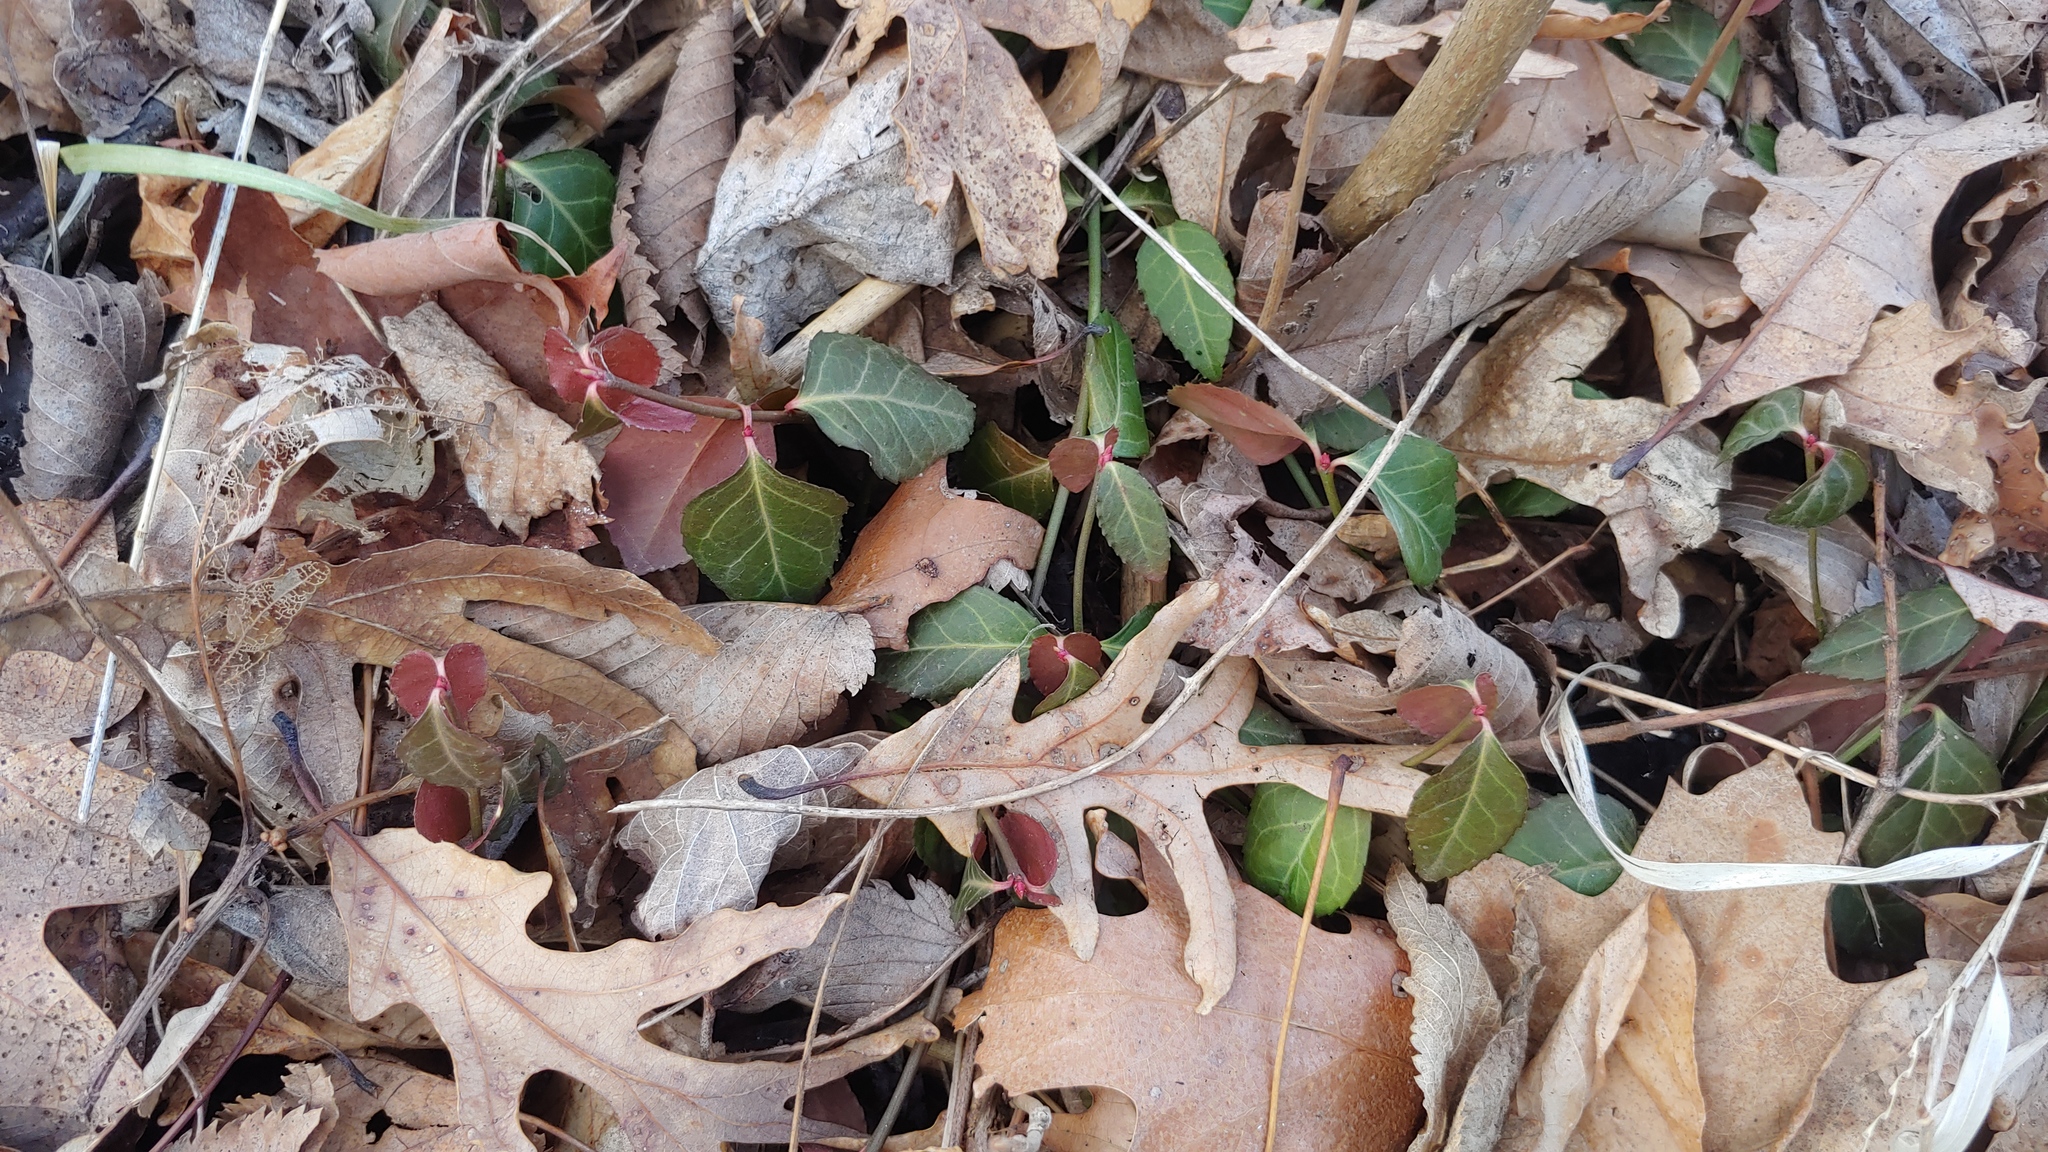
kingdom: Plantae
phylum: Tracheophyta
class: Magnoliopsida
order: Celastrales
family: Celastraceae
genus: Euonymus
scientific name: Euonymus fortunei
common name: Climbing euonymus
